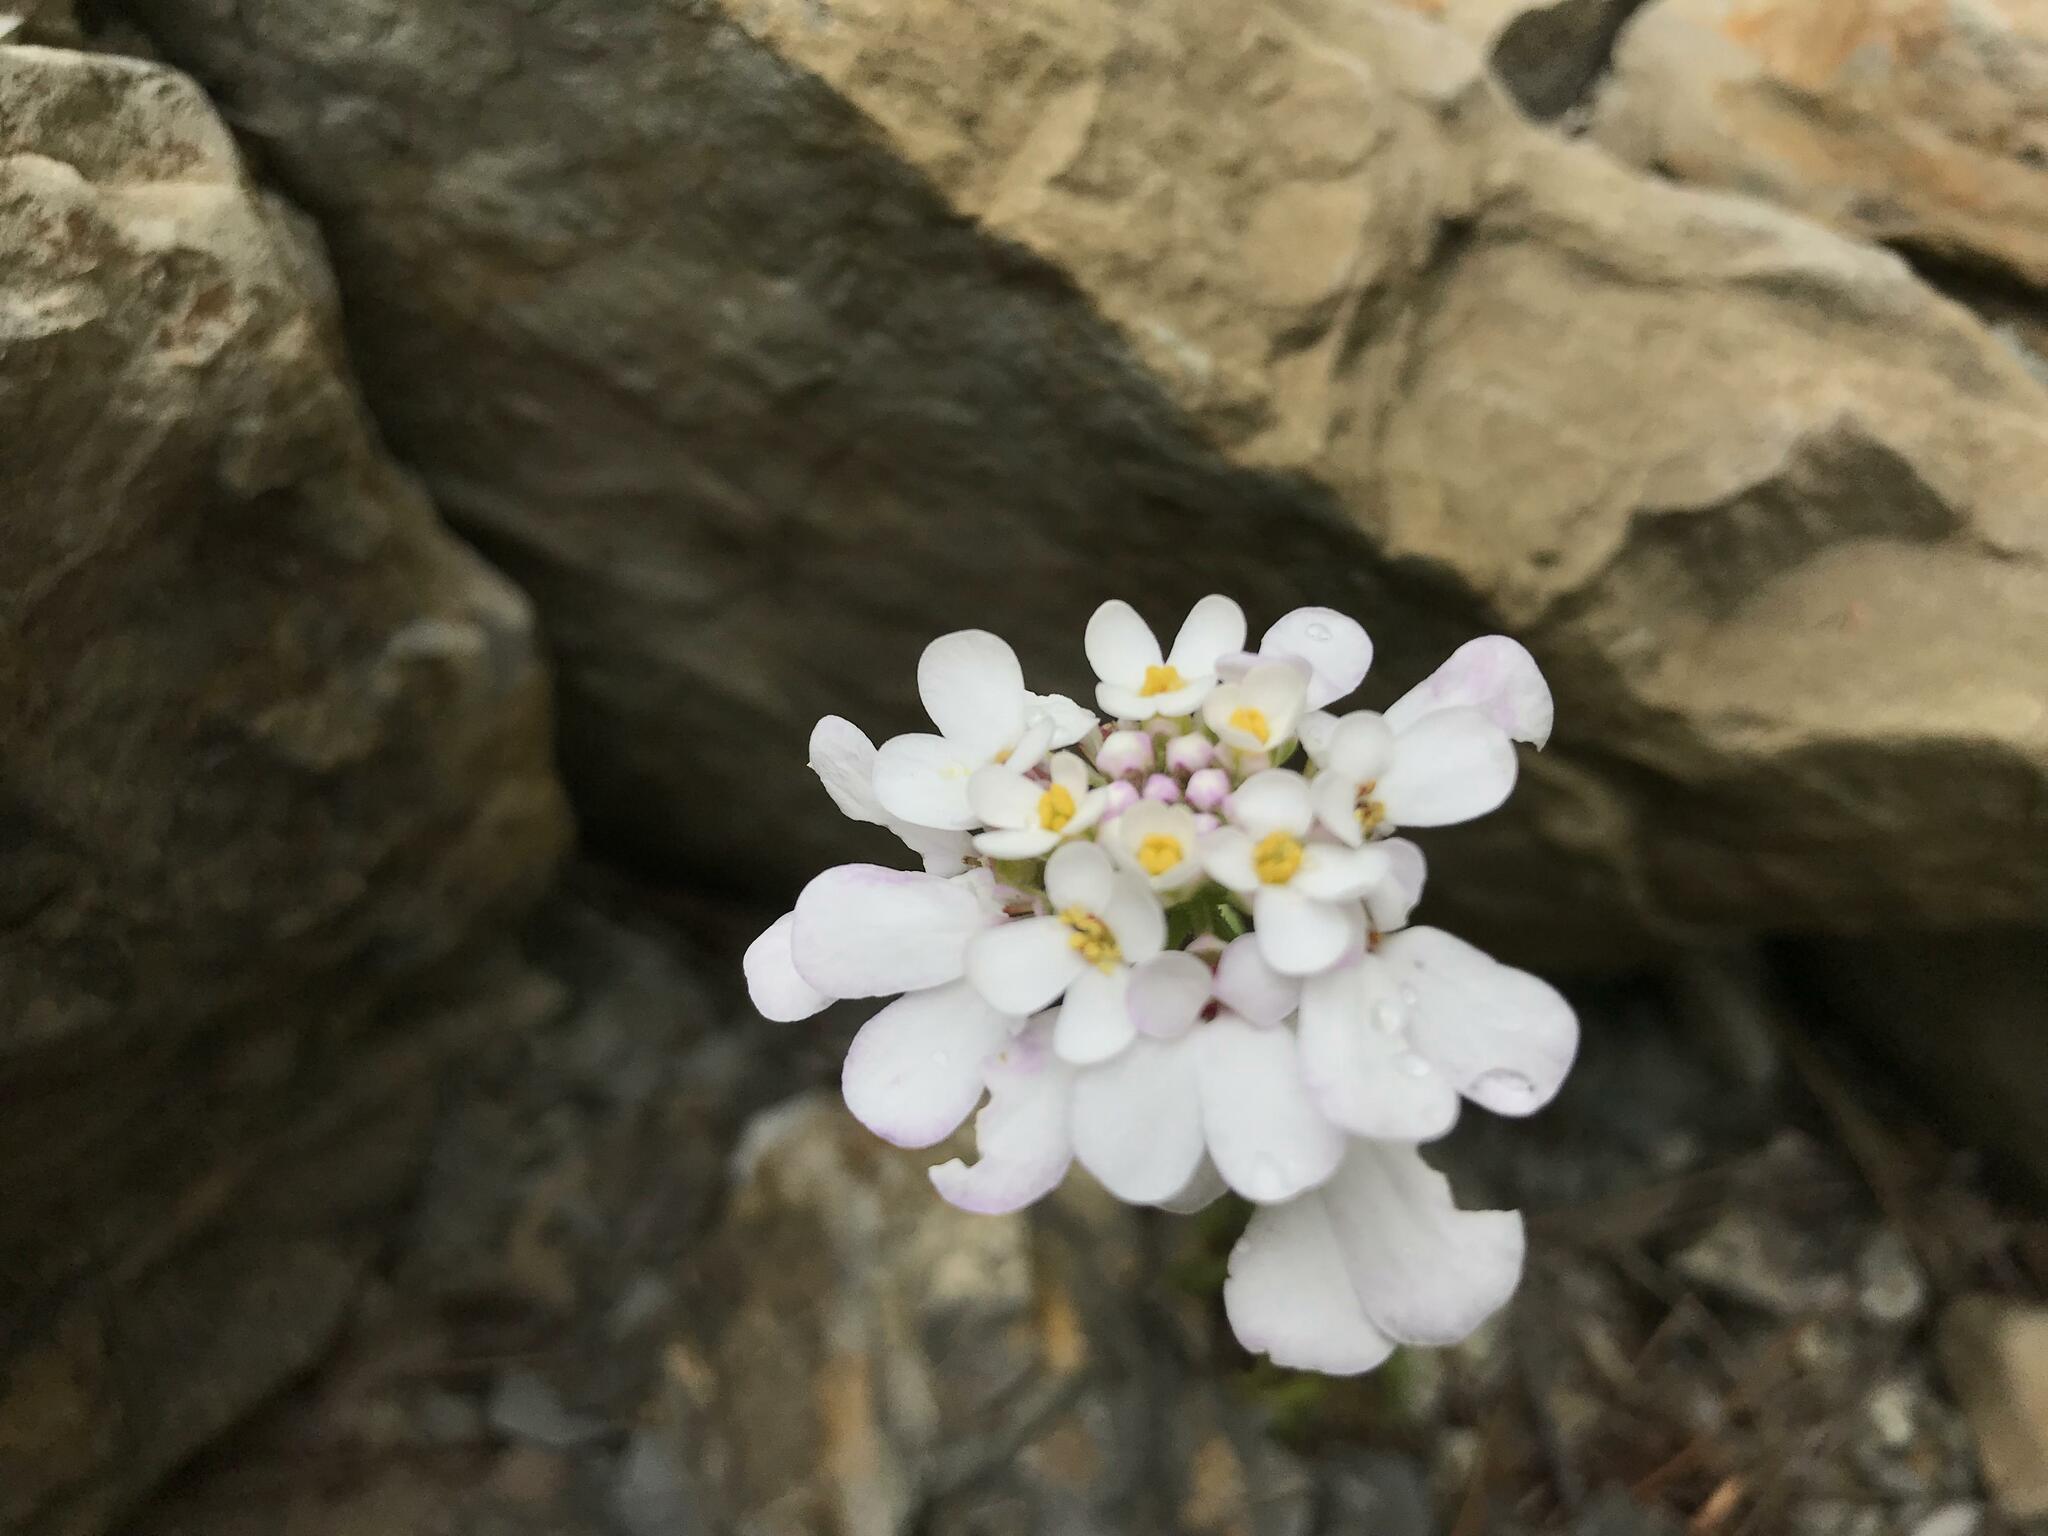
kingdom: Plantae
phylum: Tracheophyta
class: Magnoliopsida
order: Brassicales
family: Brassicaceae
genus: Iberis
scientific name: Iberis simplex
